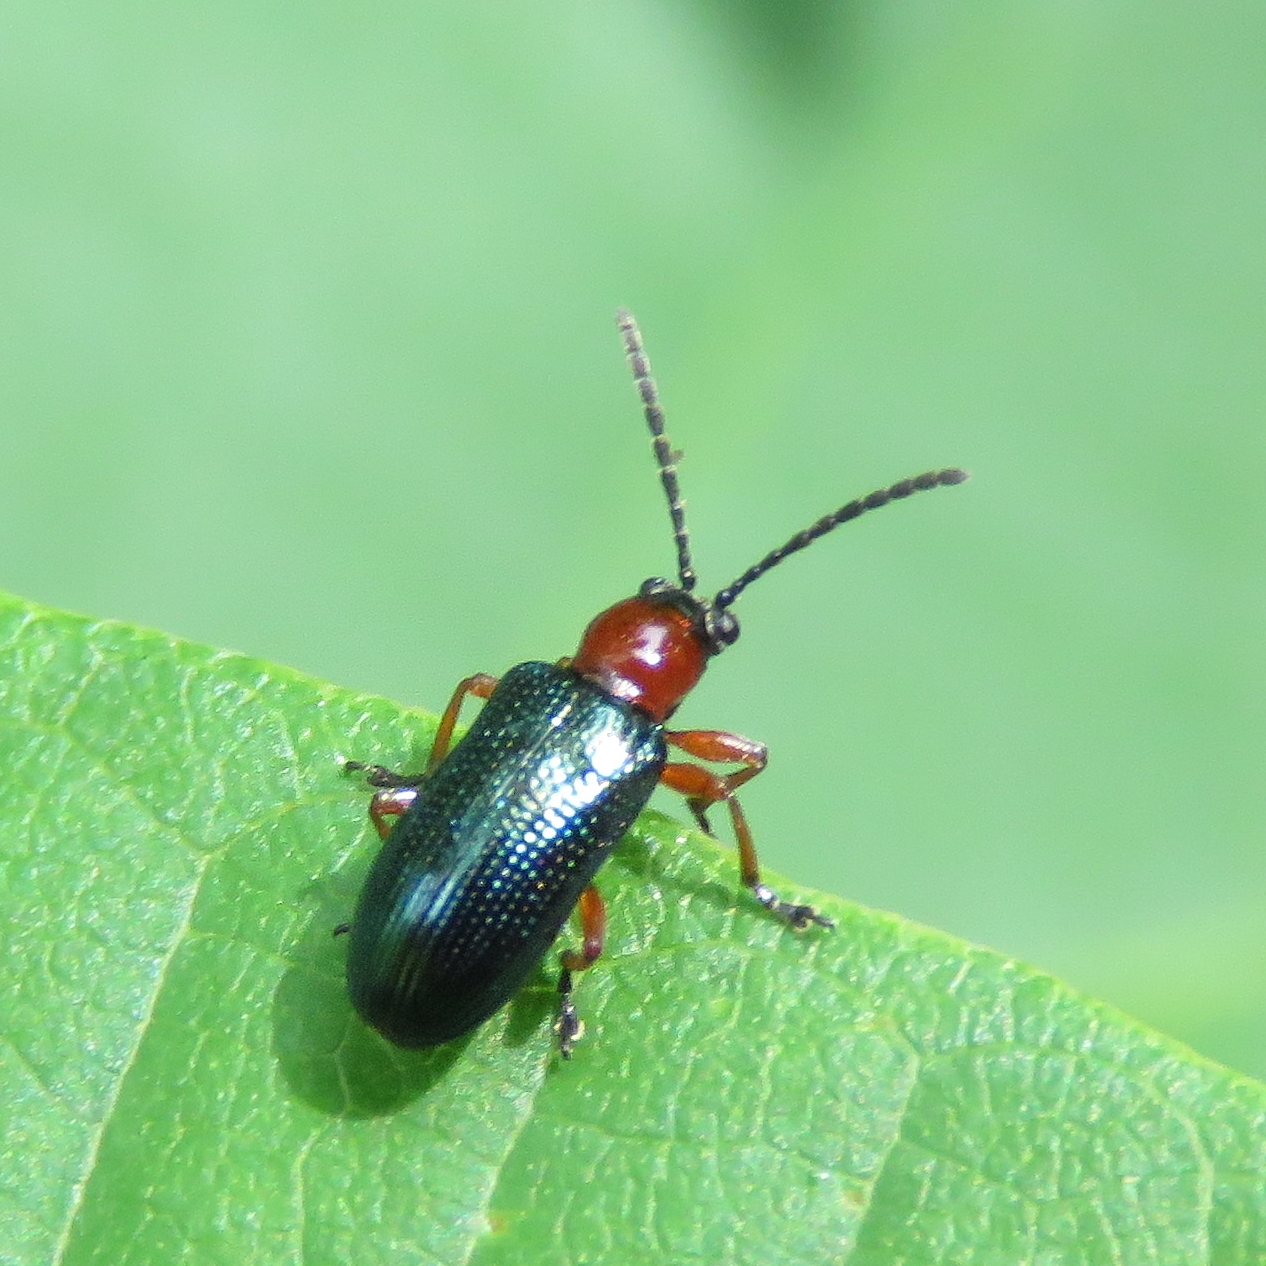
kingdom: Animalia
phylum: Arthropoda
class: Insecta
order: Coleoptera
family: Chrysomelidae
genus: Oulema
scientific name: Oulema
